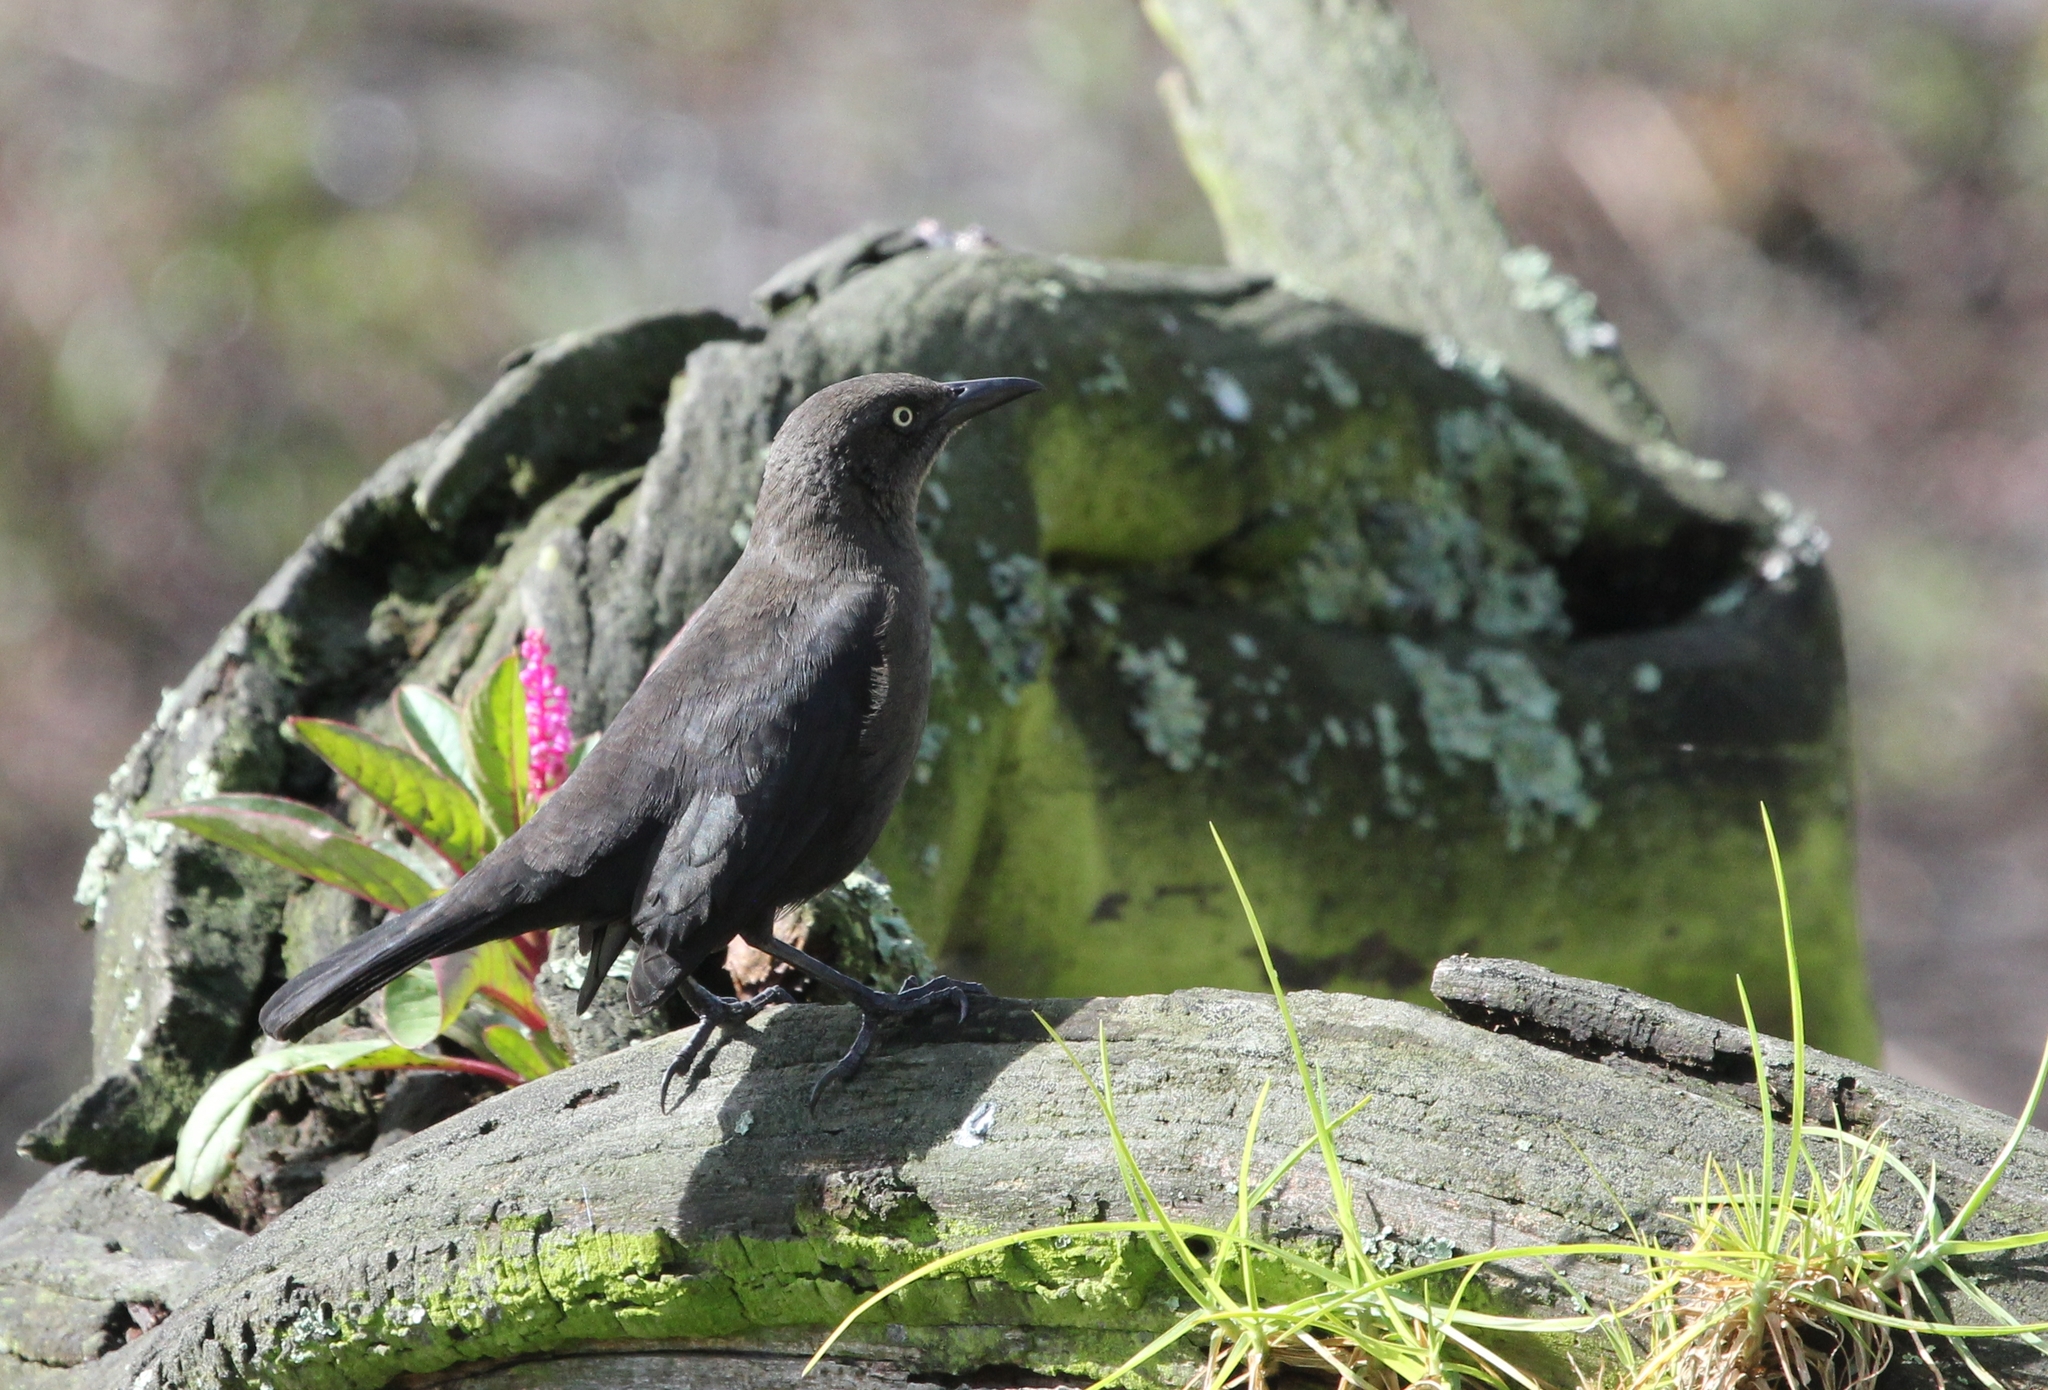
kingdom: Animalia
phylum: Chordata
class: Aves
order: Passeriformes
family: Icteridae
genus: Quiscalus
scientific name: Quiscalus lugubris
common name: Carib grackle
